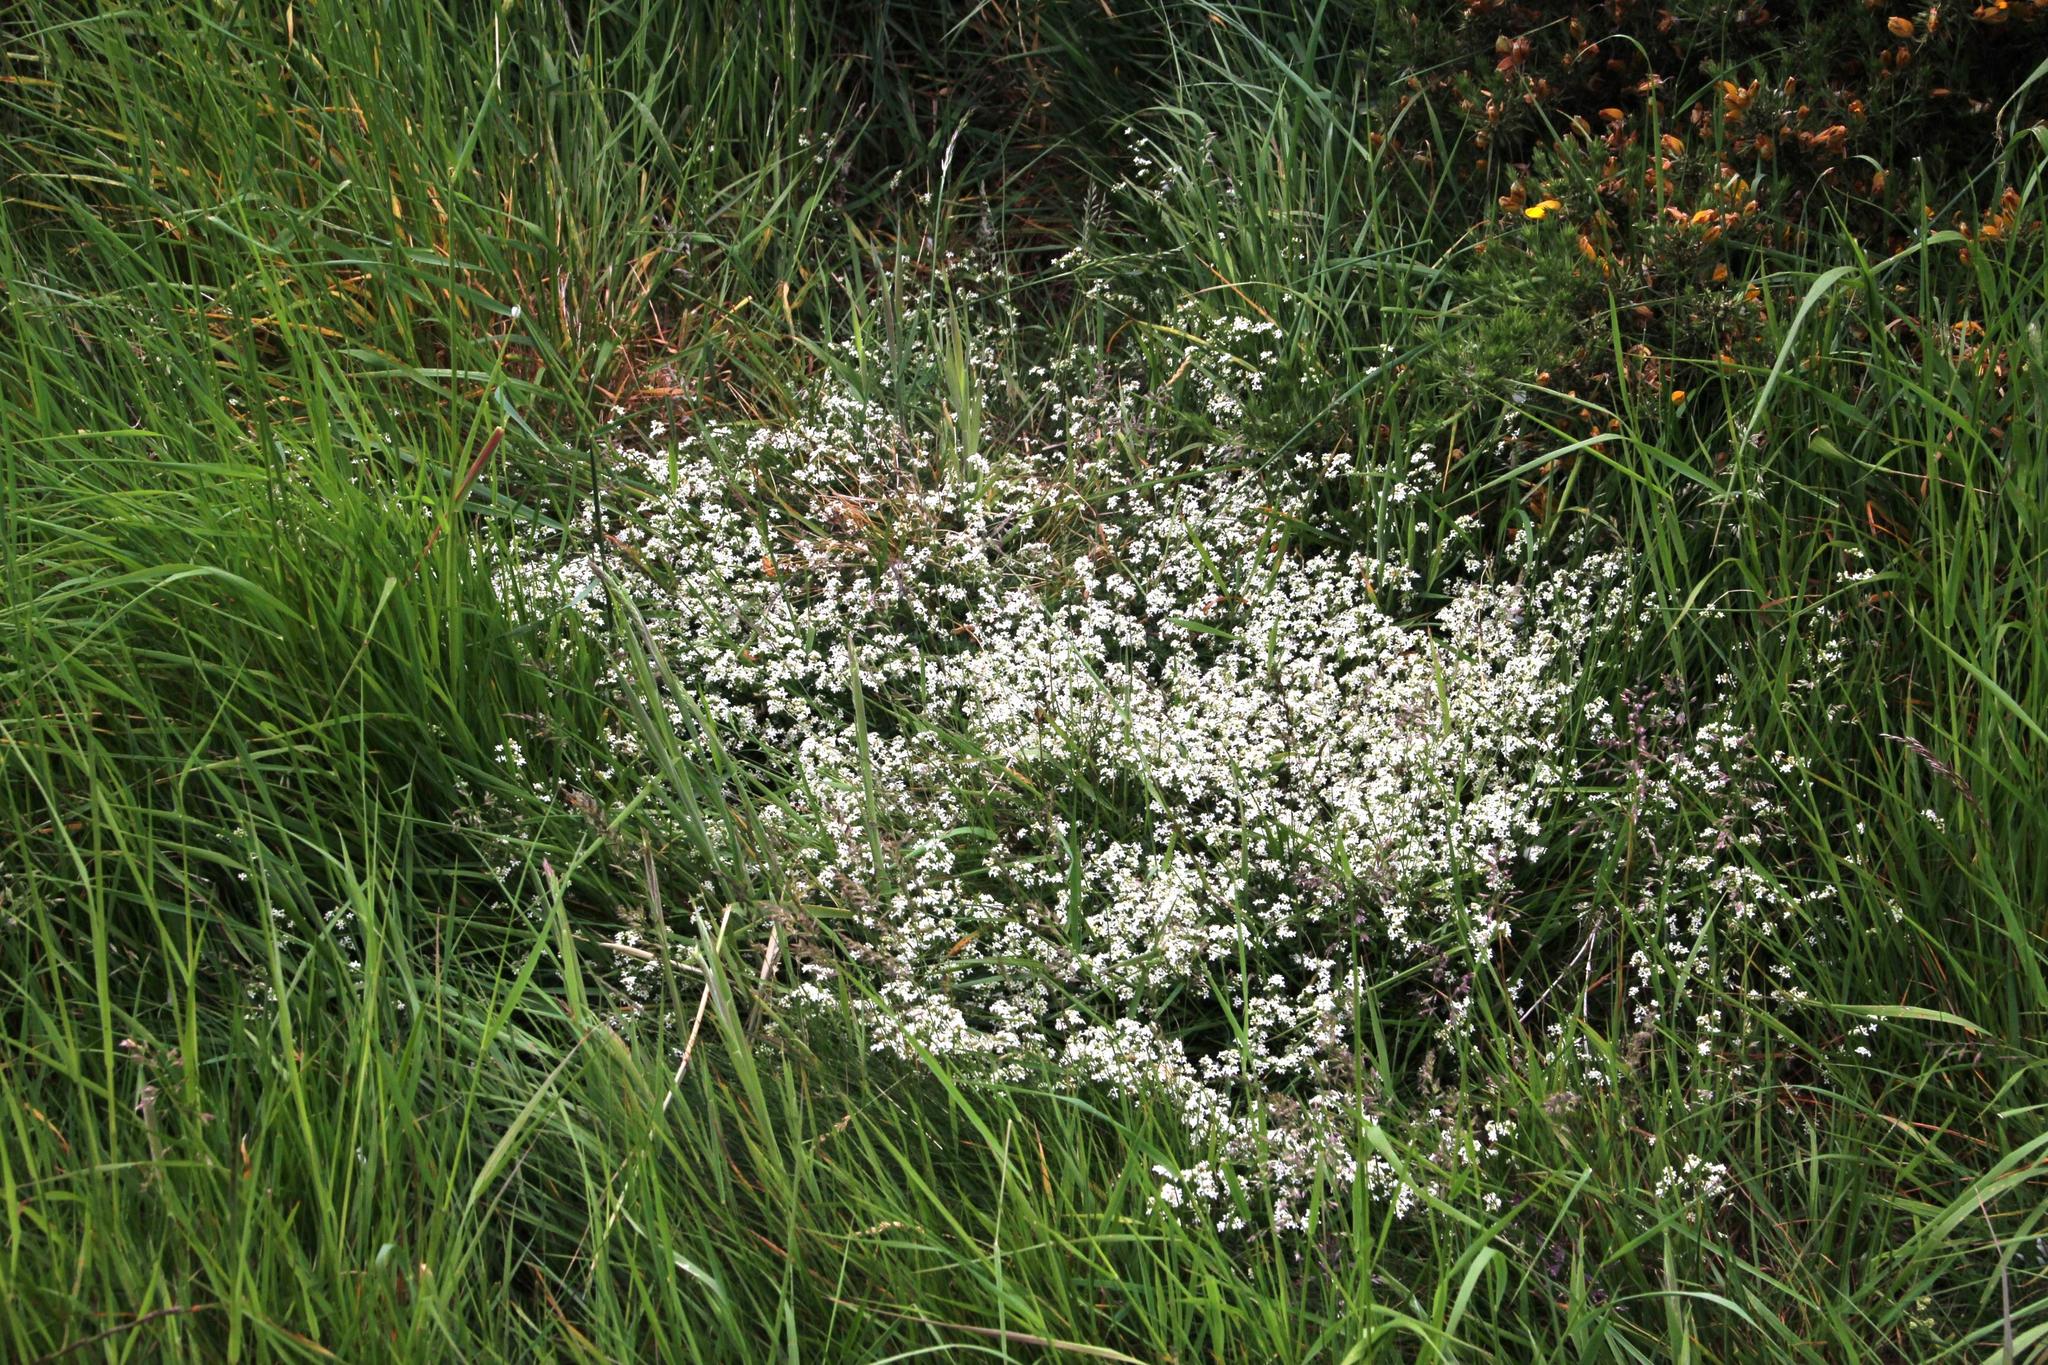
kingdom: Plantae
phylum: Tracheophyta
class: Magnoliopsida
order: Gentianales
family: Rubiaceae
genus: Galium
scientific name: Galium saxatile
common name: Heath bedstraw
